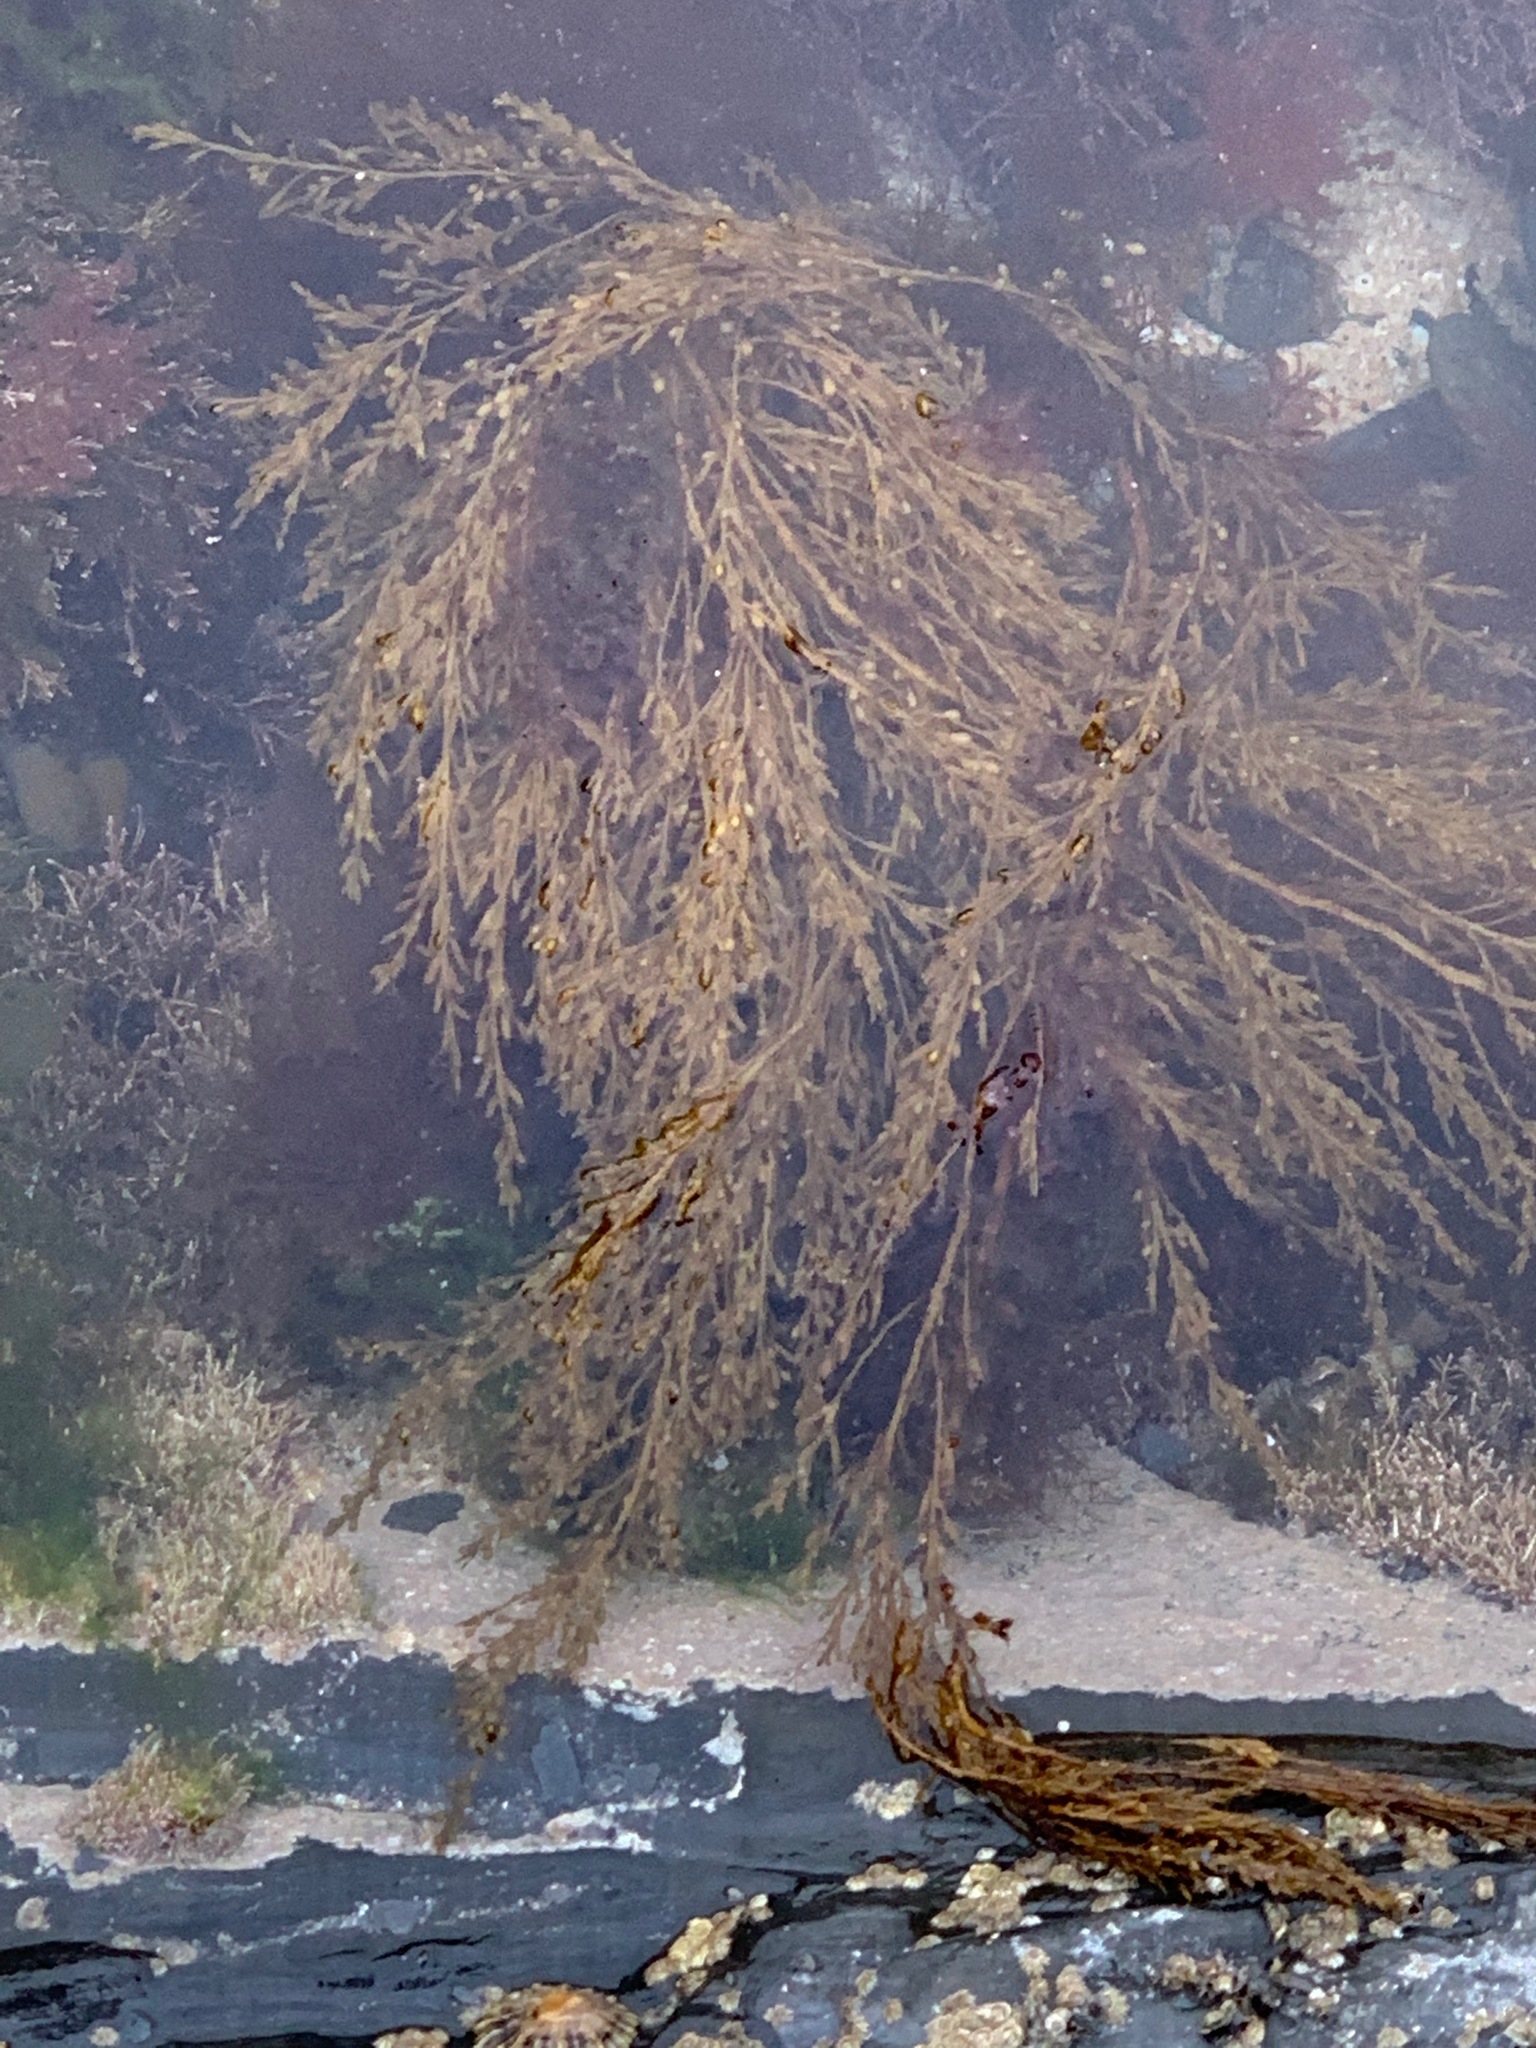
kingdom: Chromista
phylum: Ochrophyta
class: Phaeophyceae
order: Fucales
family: Sargassaceae
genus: Sargassum
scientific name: Sargassum muticum
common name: Japweed
